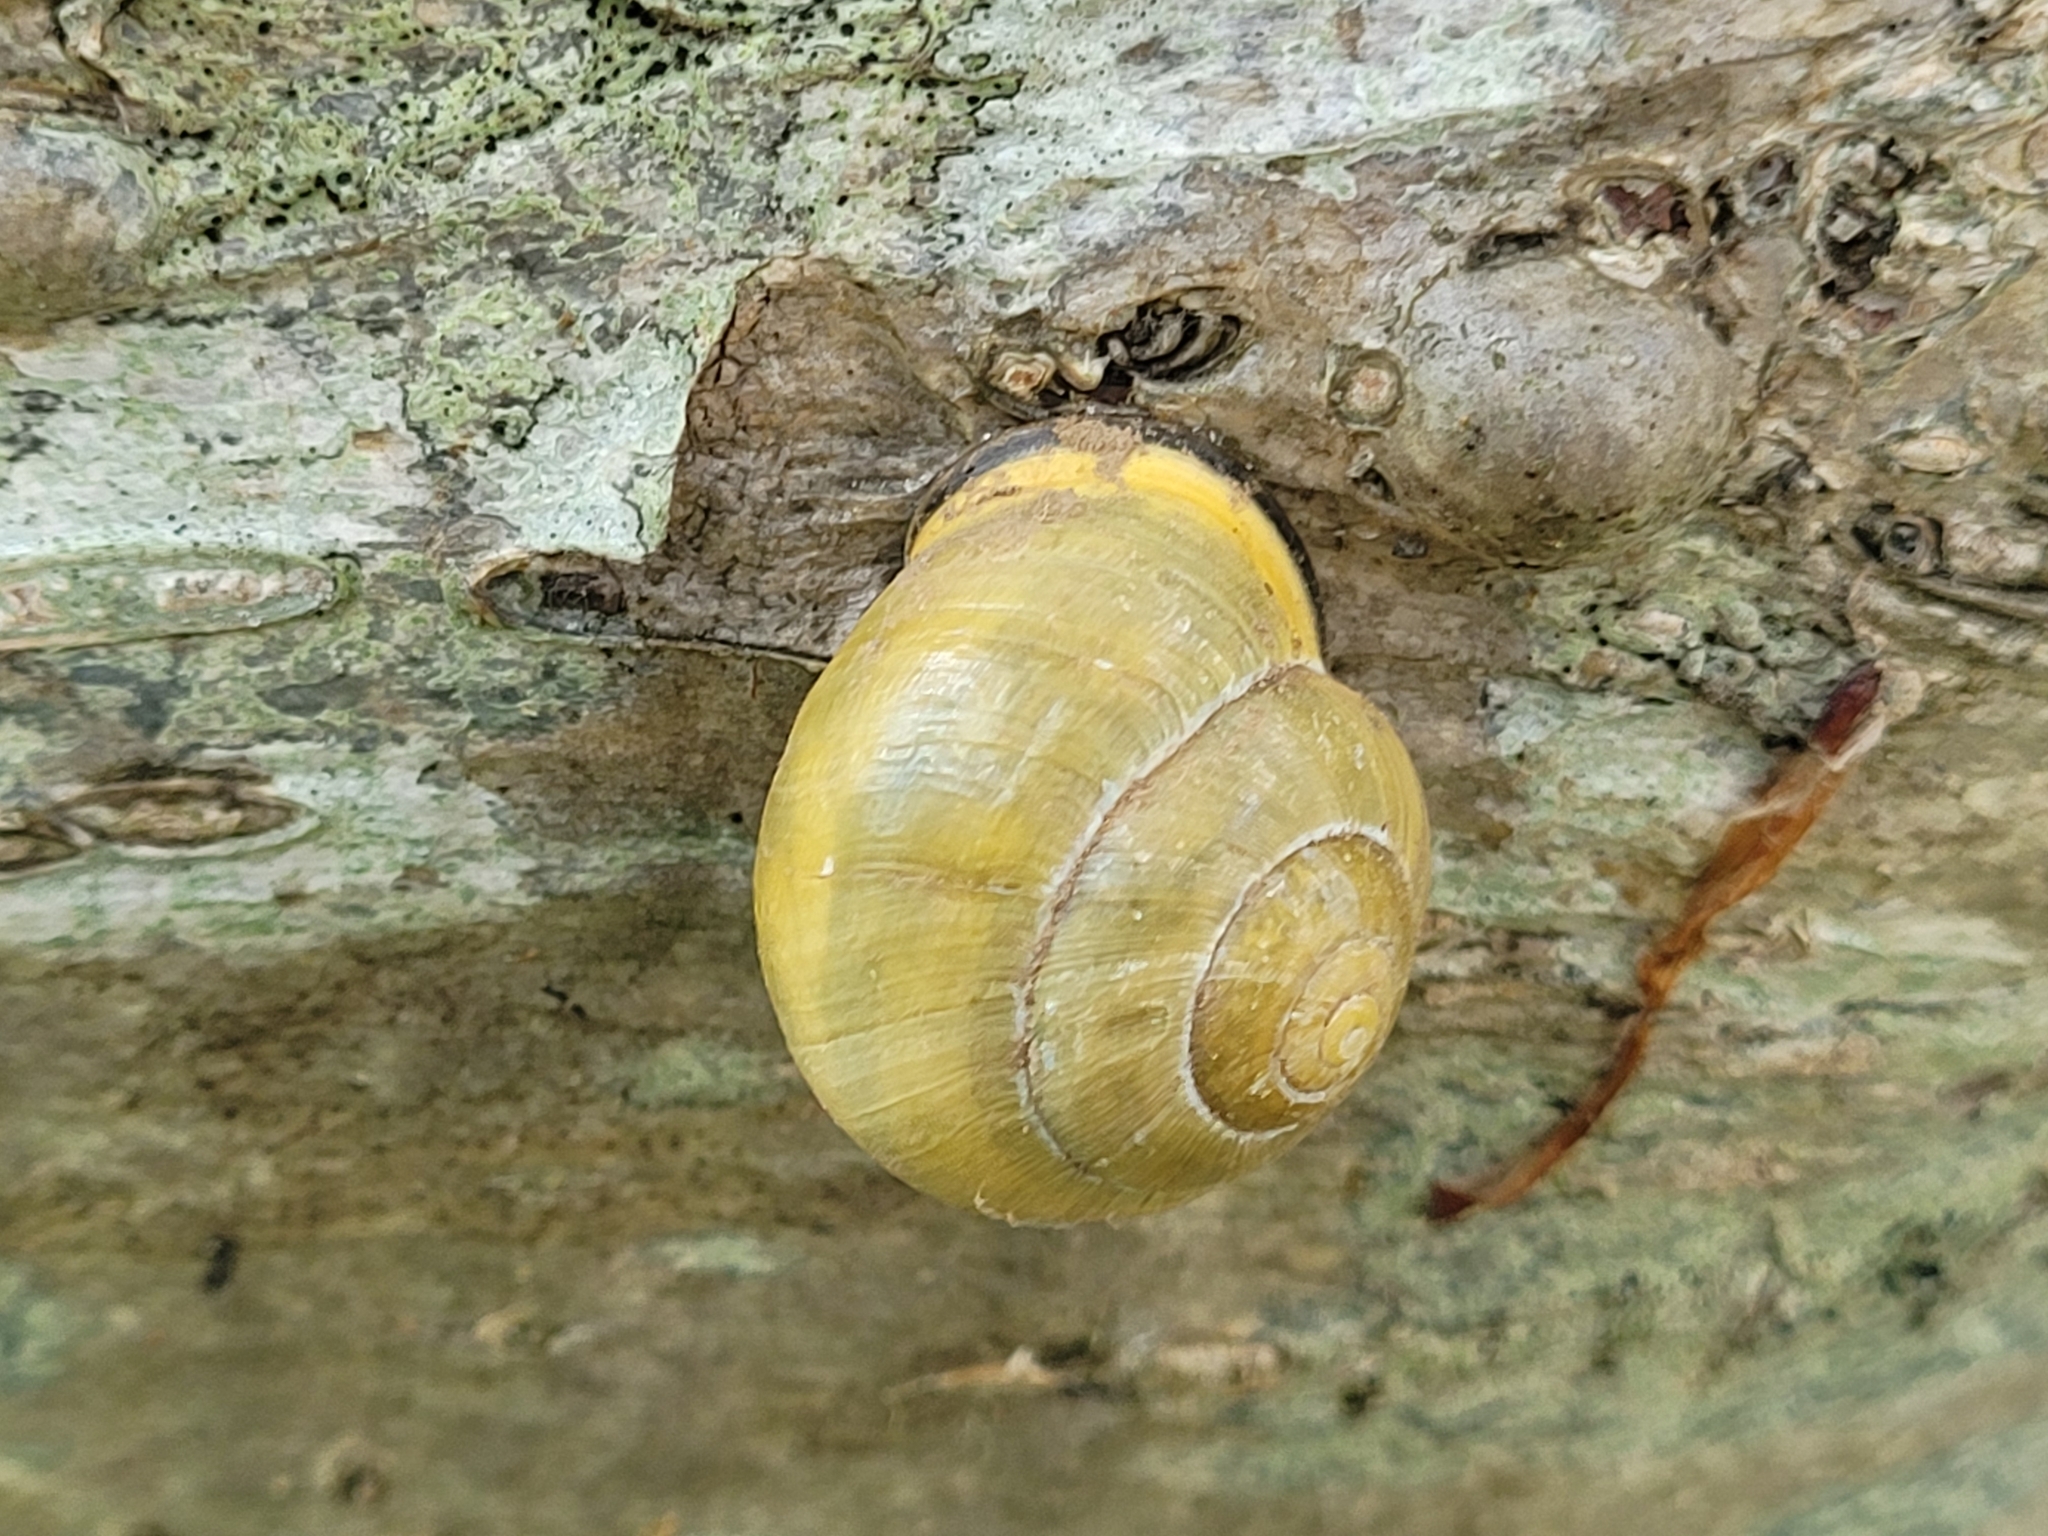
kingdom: Animalia
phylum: Mollusca
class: Gastropoda
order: Stylommatophora
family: Helicidae
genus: Cepaea
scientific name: Cepaea nemoralis
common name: Grovesnail
